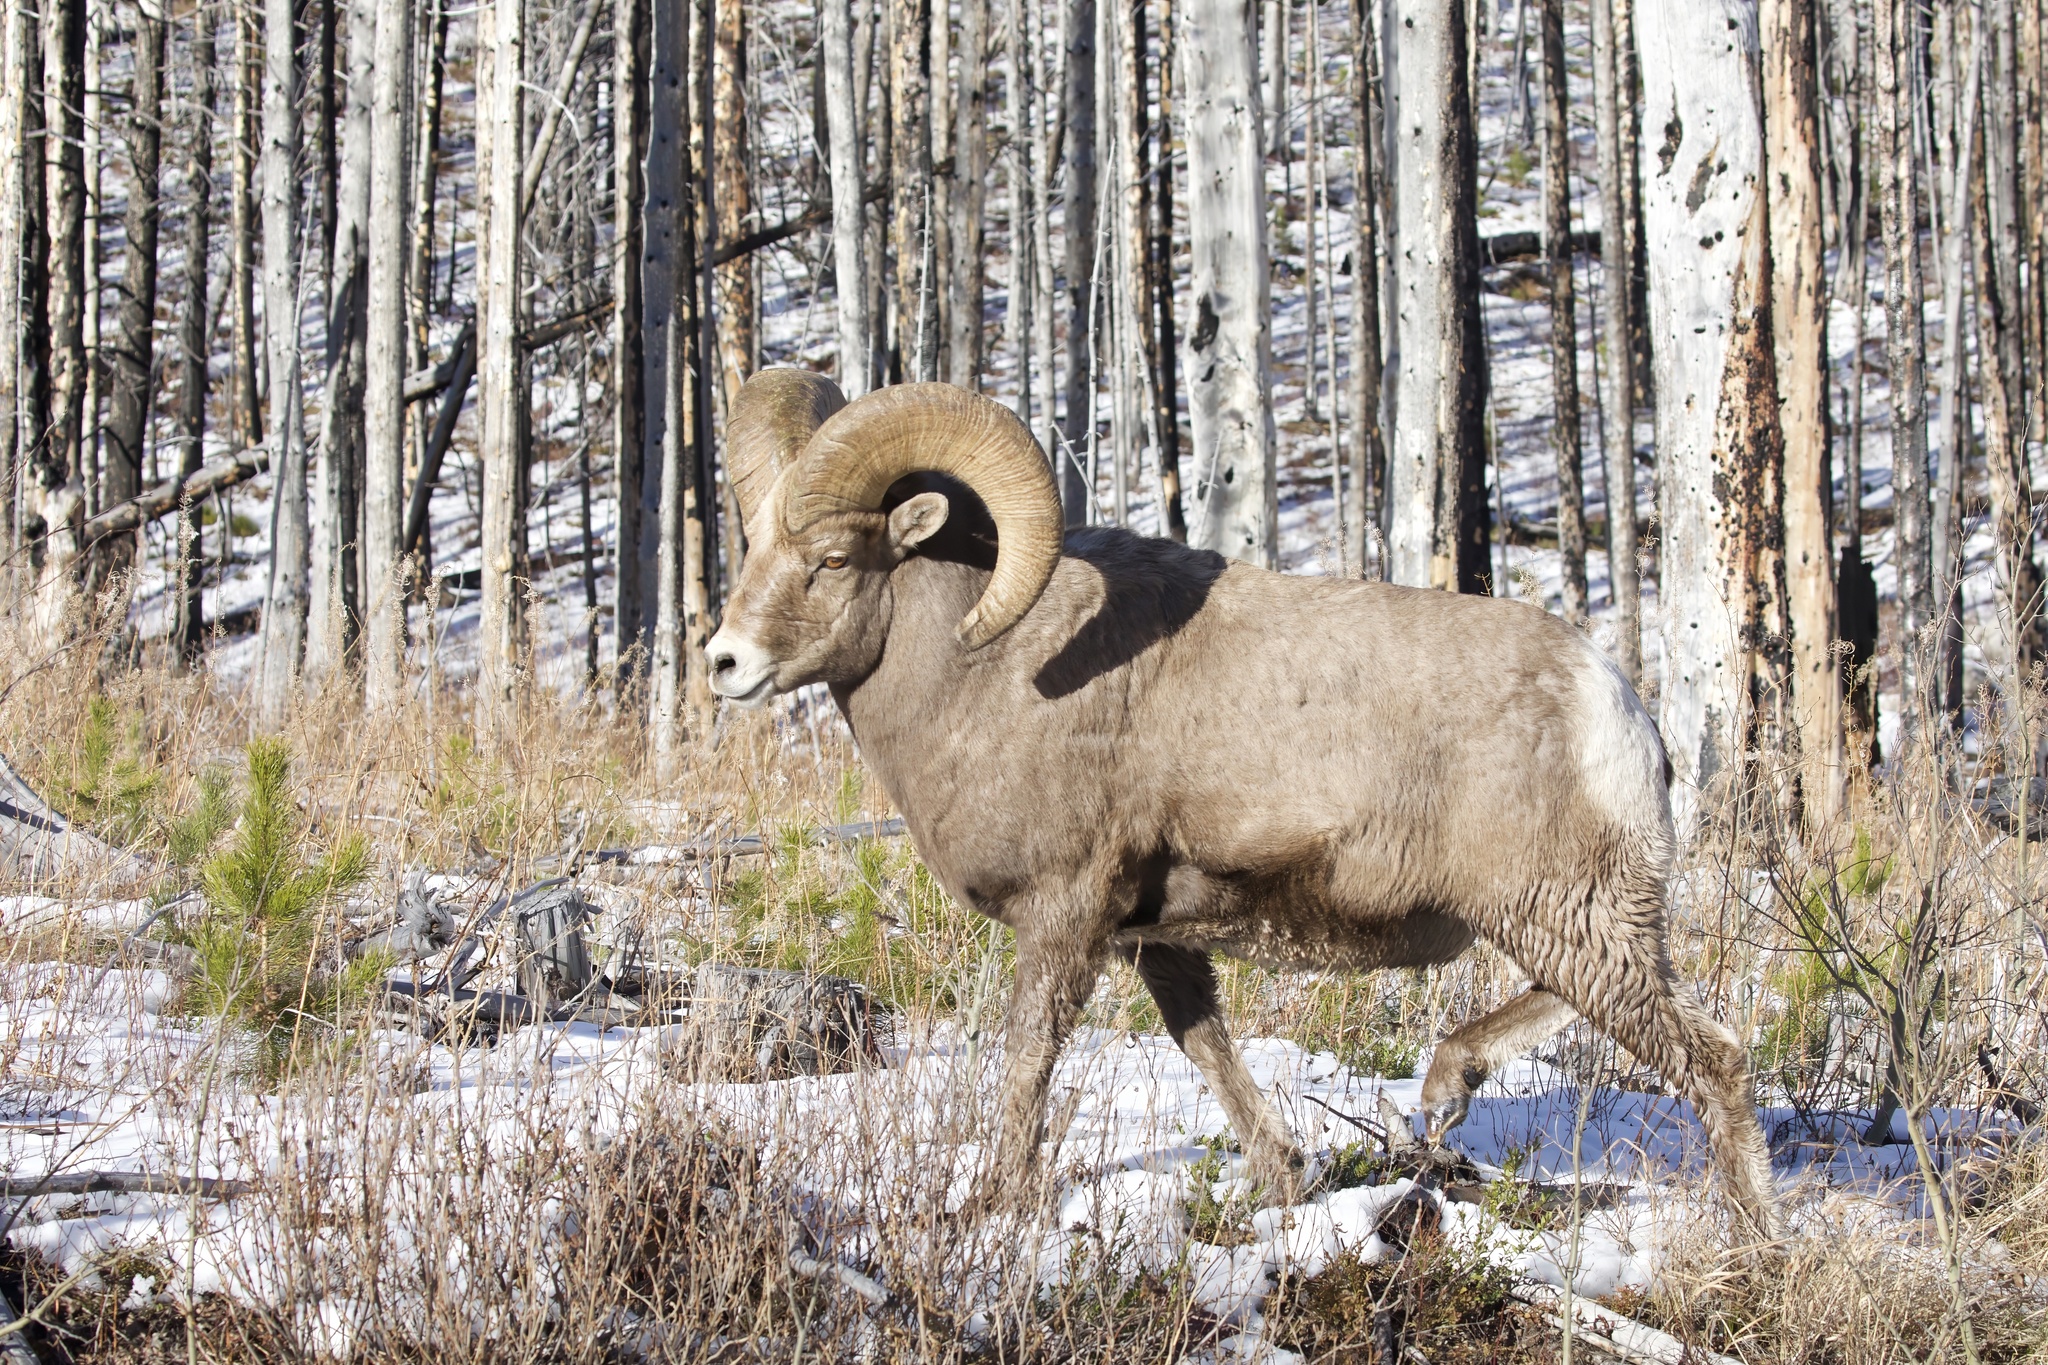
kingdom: Animalia
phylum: Chordata
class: Mammalia
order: Artiodactyla
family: Bovidae
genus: Ovis
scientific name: Ovis canadensis
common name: Bighorn sheep
